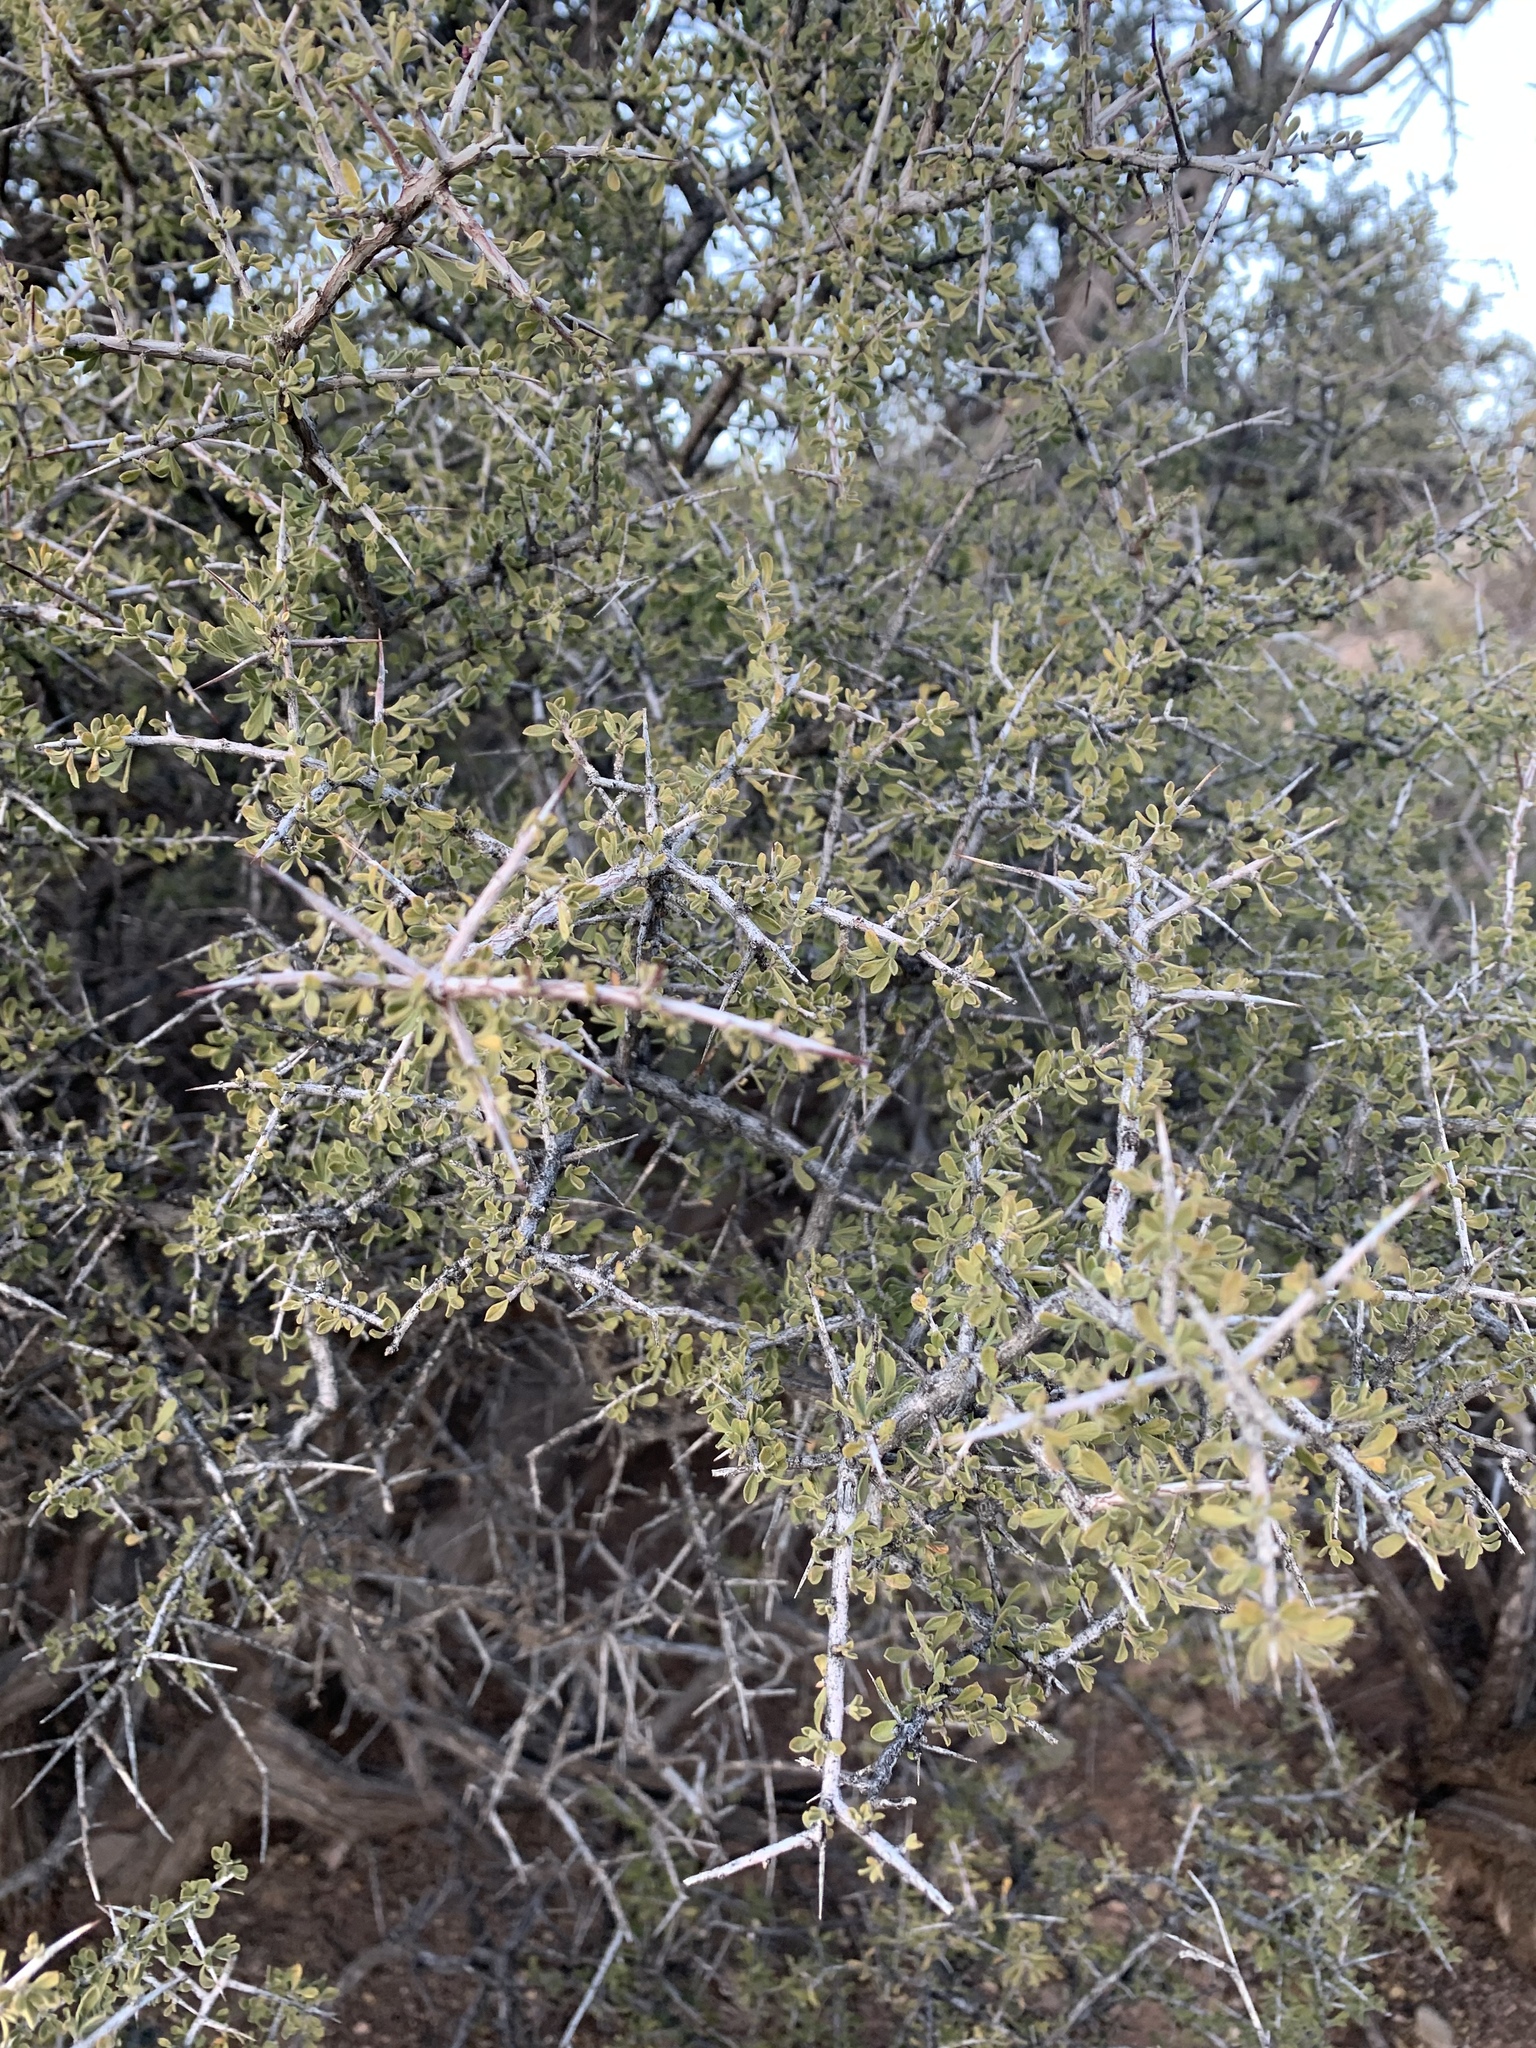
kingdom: Plantae
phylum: Tracheophyta
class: Magnoliopsida
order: Rosales
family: Rhamnaceae
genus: Condalia
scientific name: Condalia warnockii
